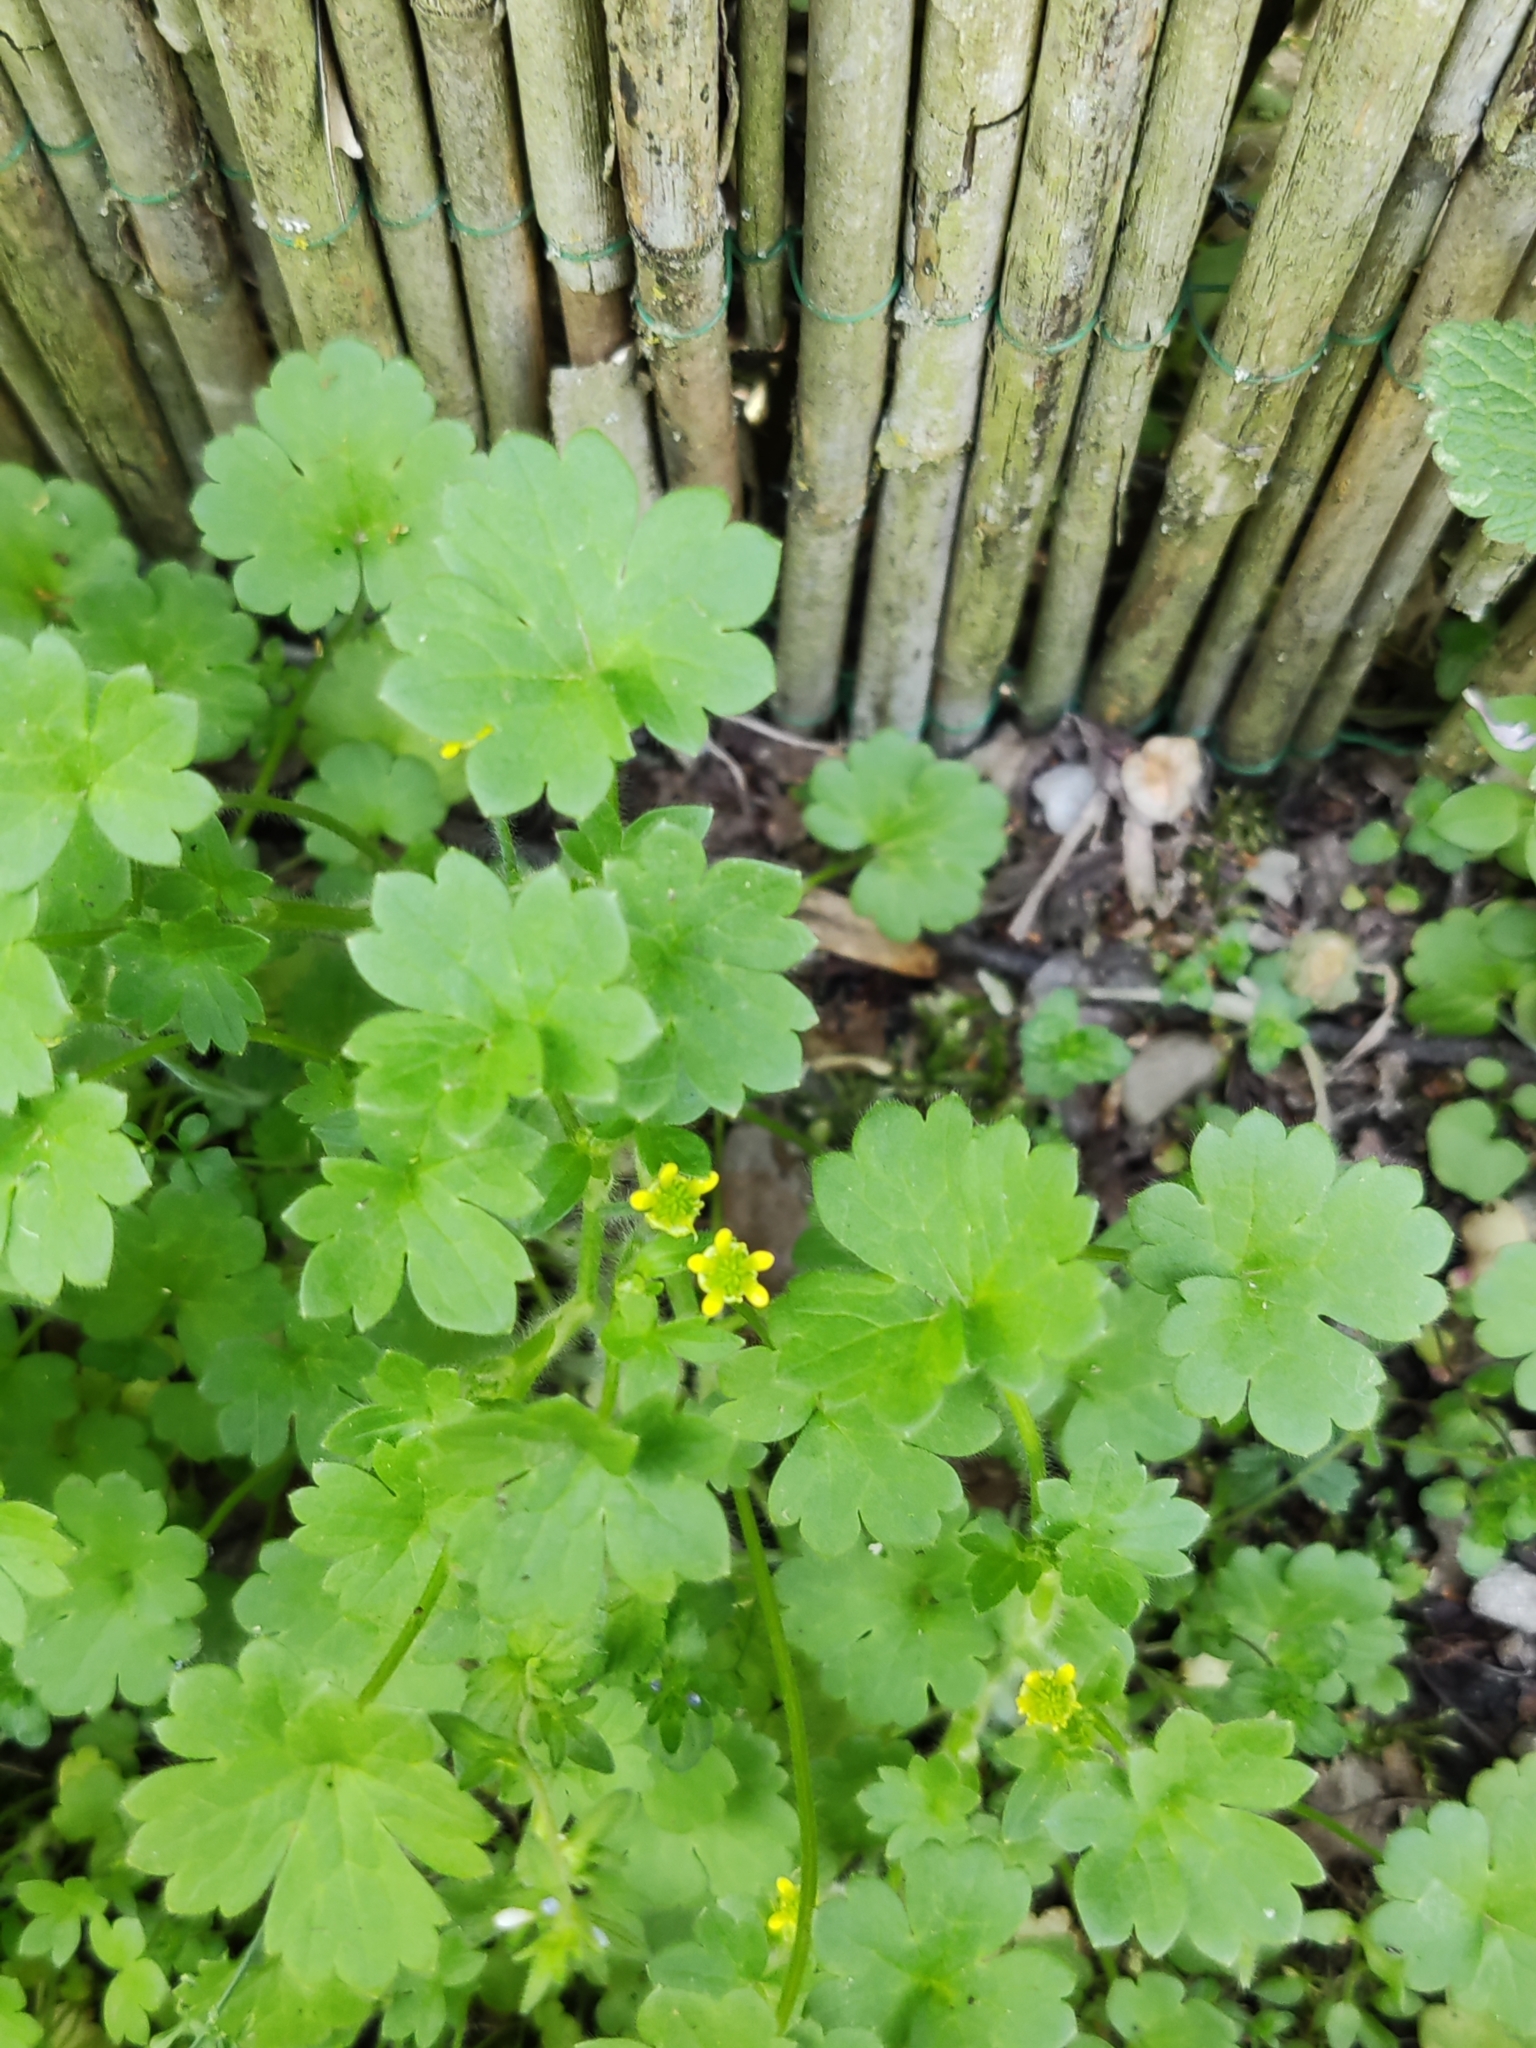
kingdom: Plantae
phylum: Tracheophyta
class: Magnoliopsida
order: Ranunculales
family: Ranunculaceae
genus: Ranunculus
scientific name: Ranunculus parviflorus
